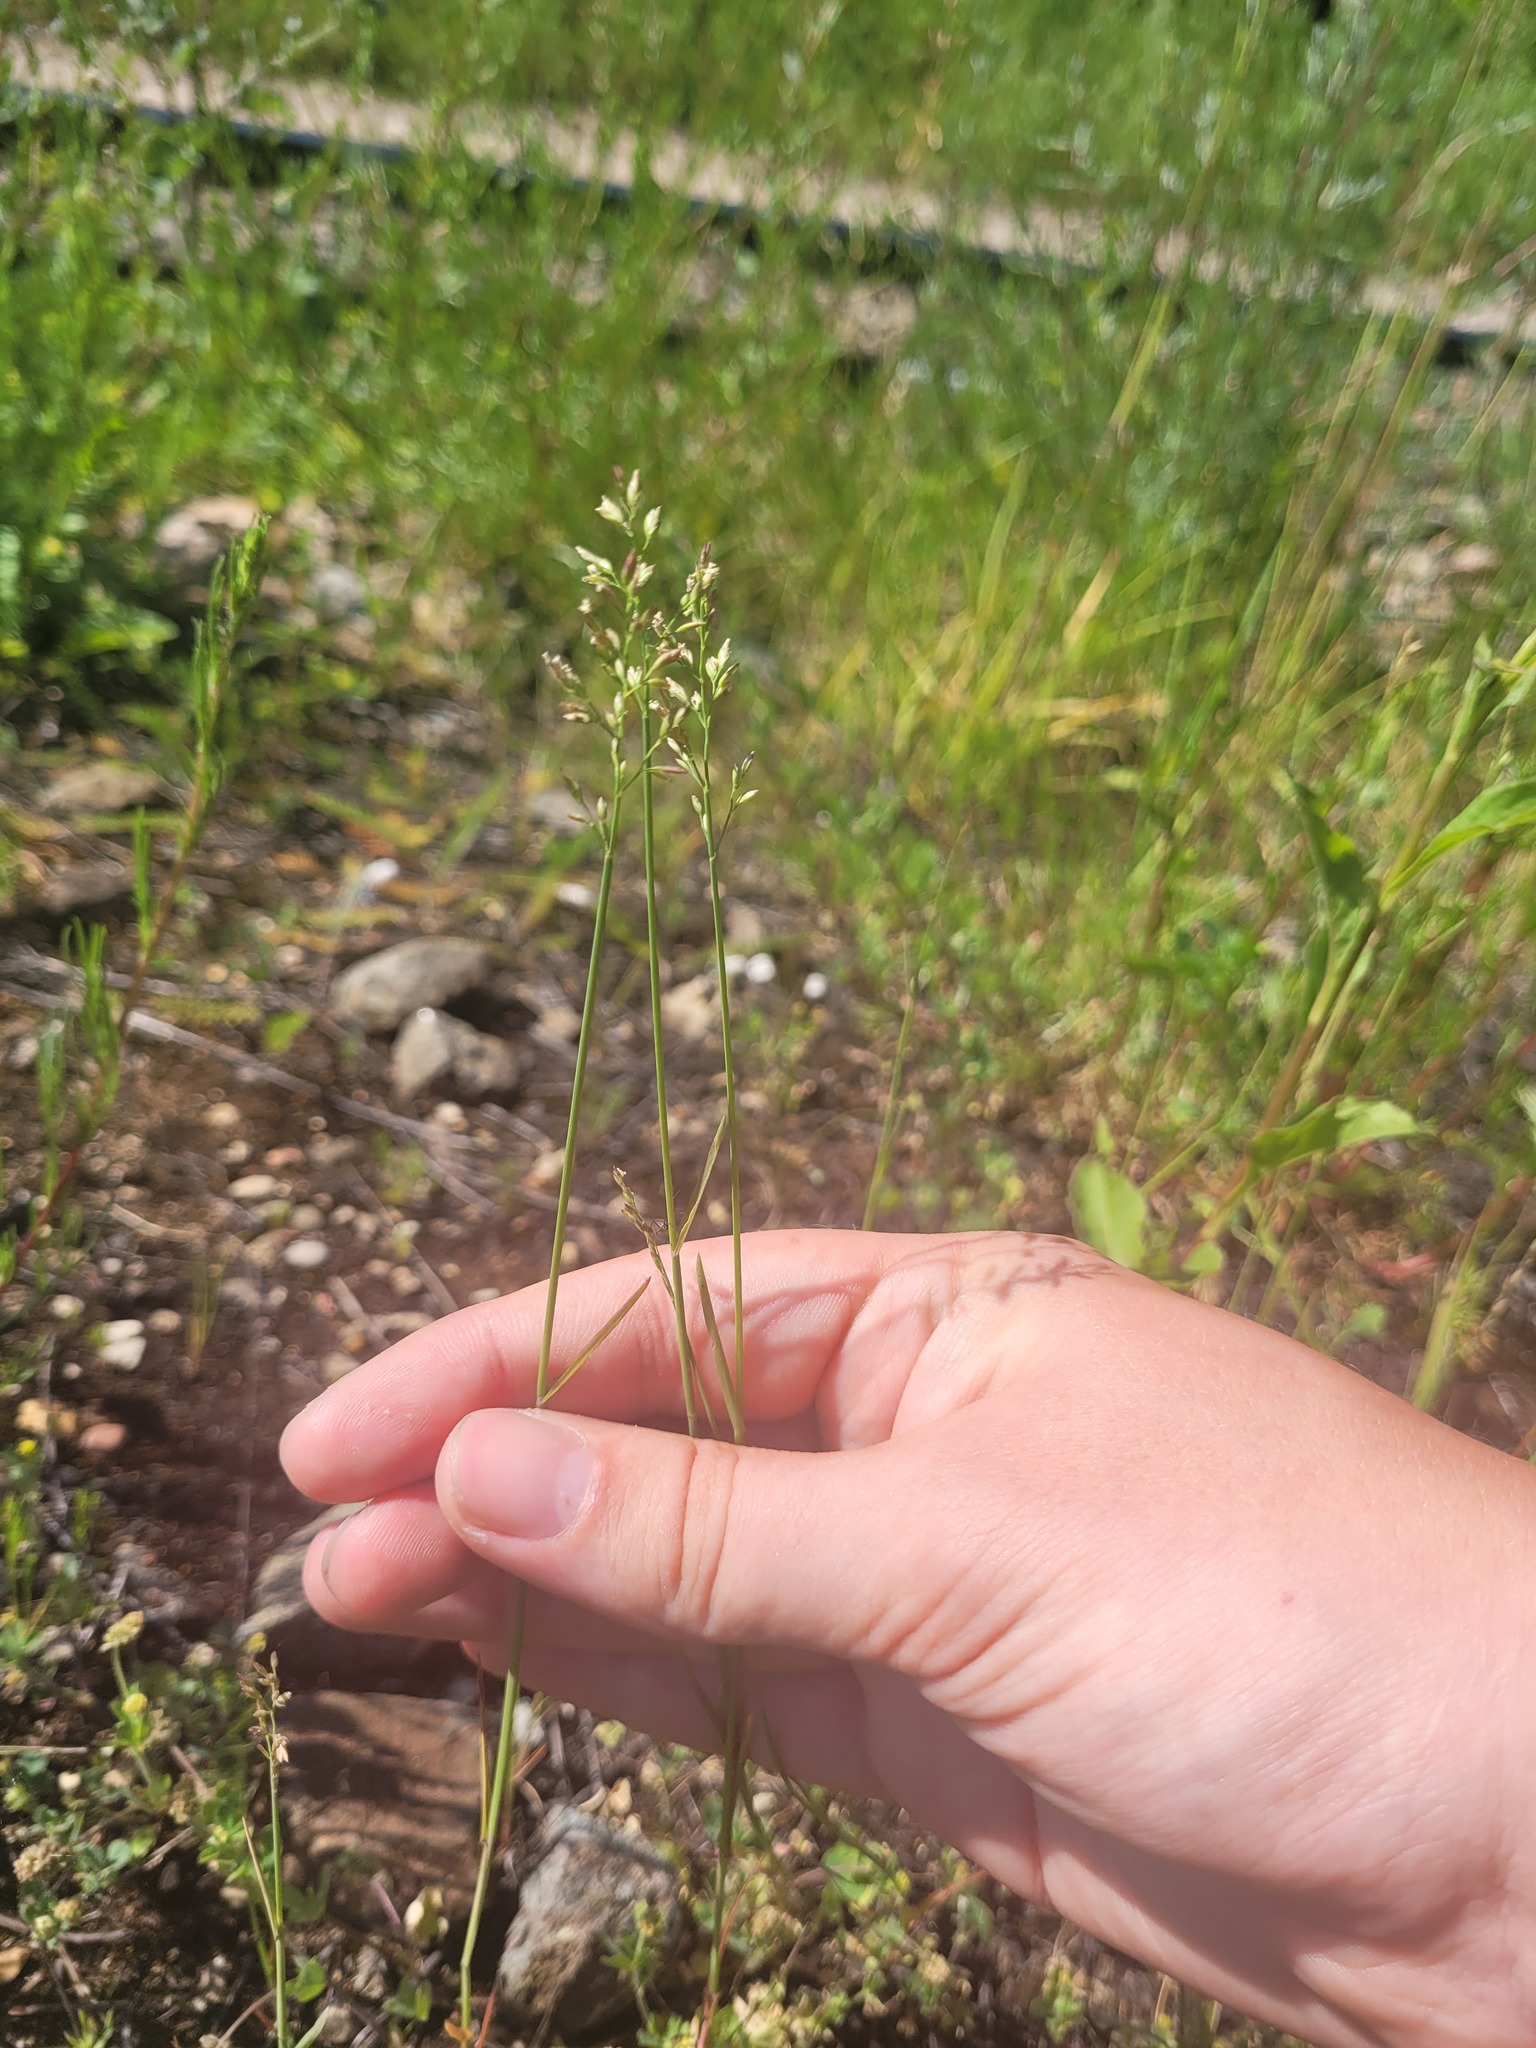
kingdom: Plantae
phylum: Tracheophyta
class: Liliopsida
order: Poales
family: Poaceae
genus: Poa
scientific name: Poa compressa
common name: Canada bluegrass
